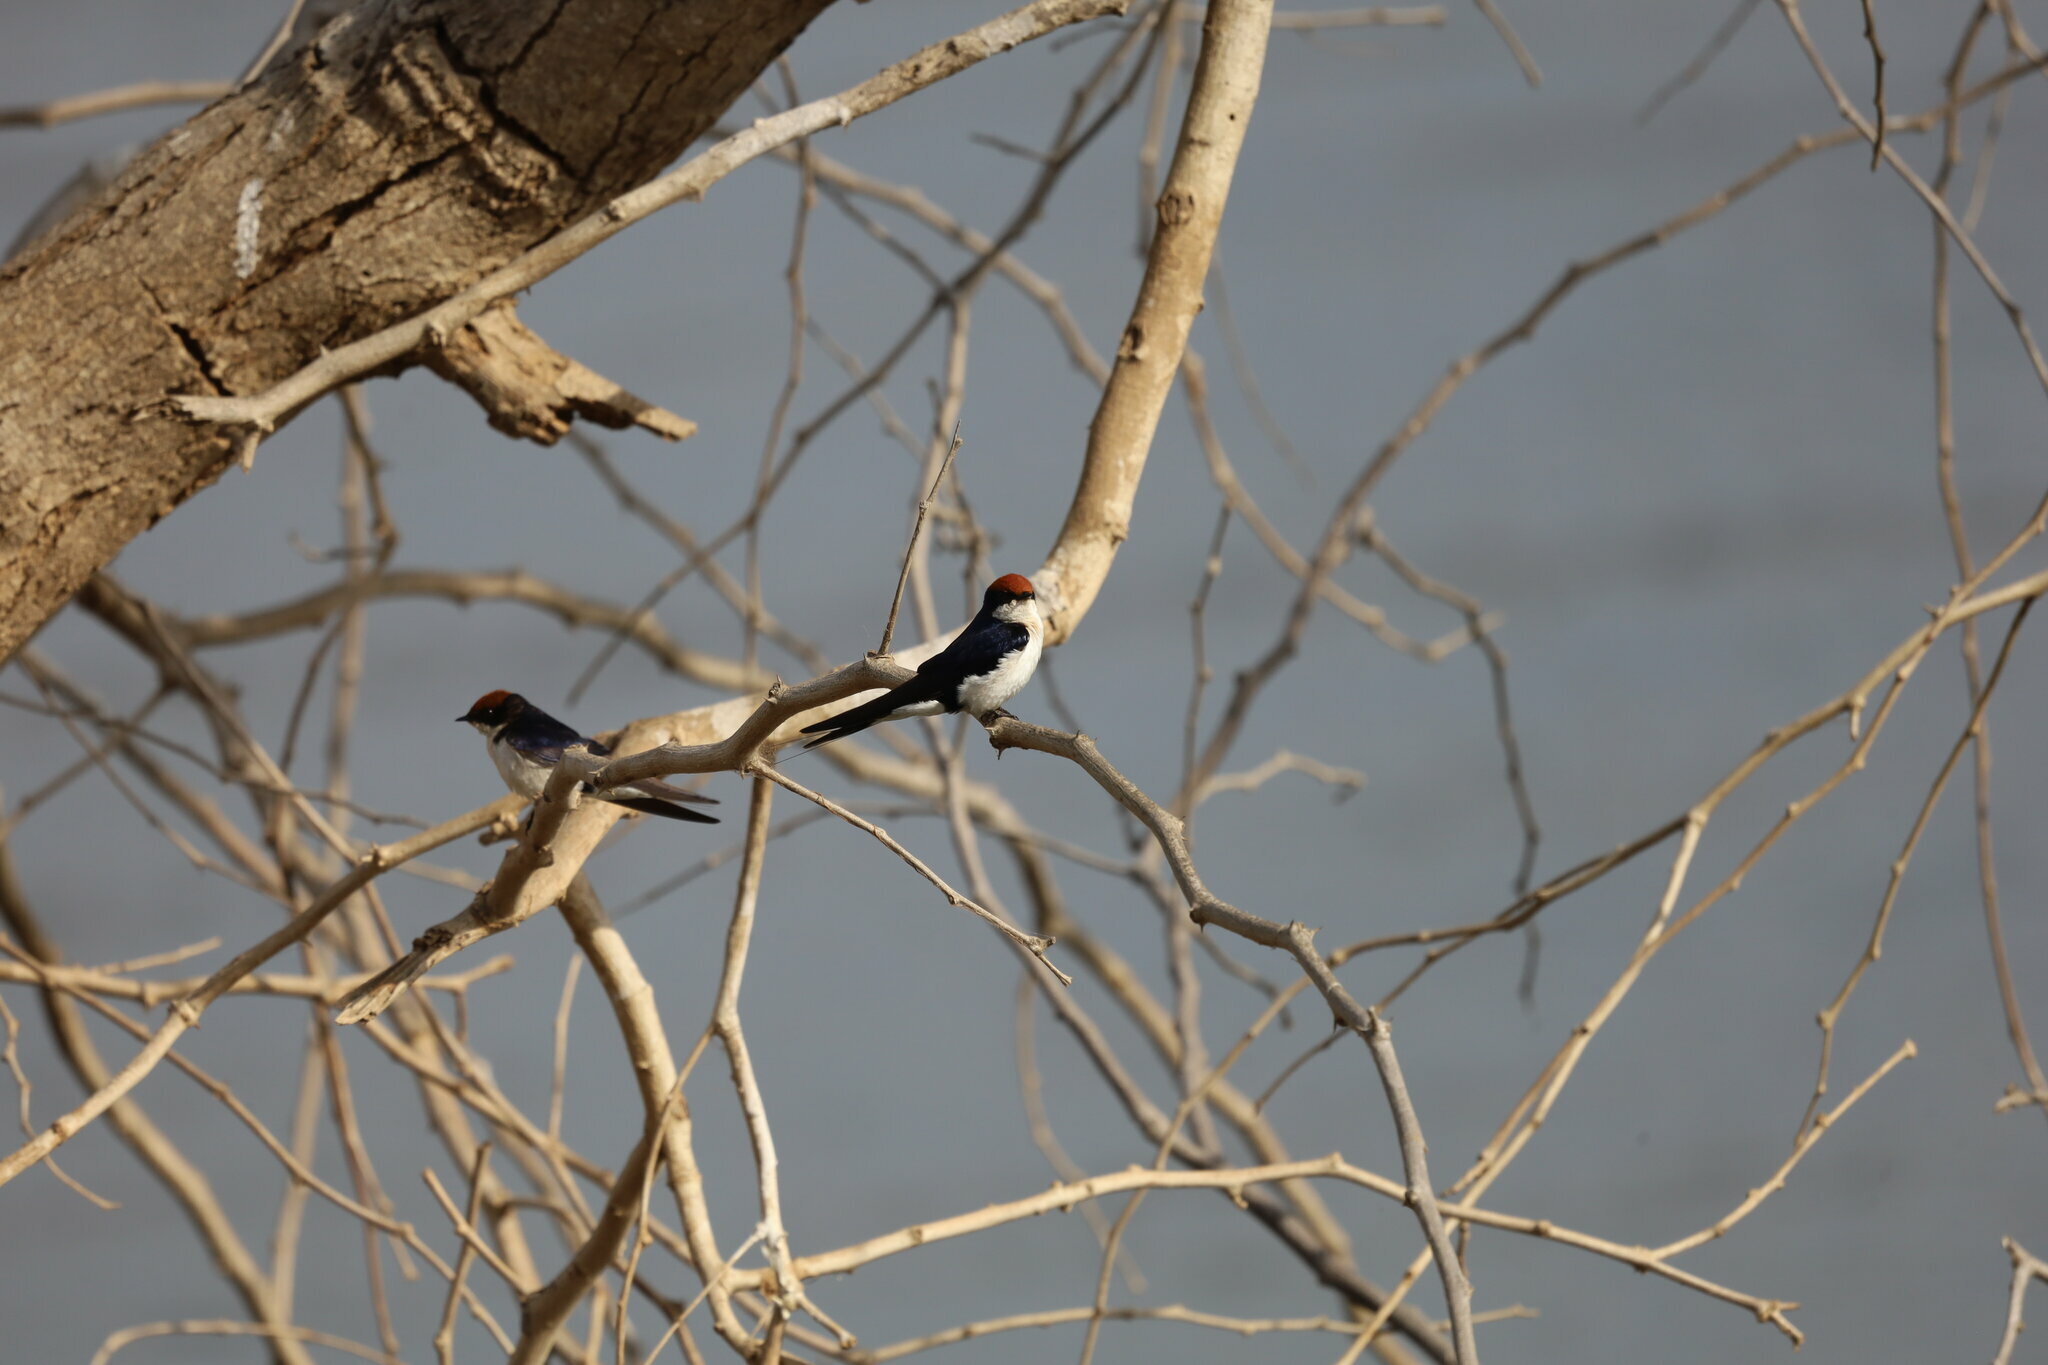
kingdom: Animalia
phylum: Chordata
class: Aves
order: Passeriformes
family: Hirundinidae
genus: Hirundo
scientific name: Hirundo smithii
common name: Wire-tailed swallow
